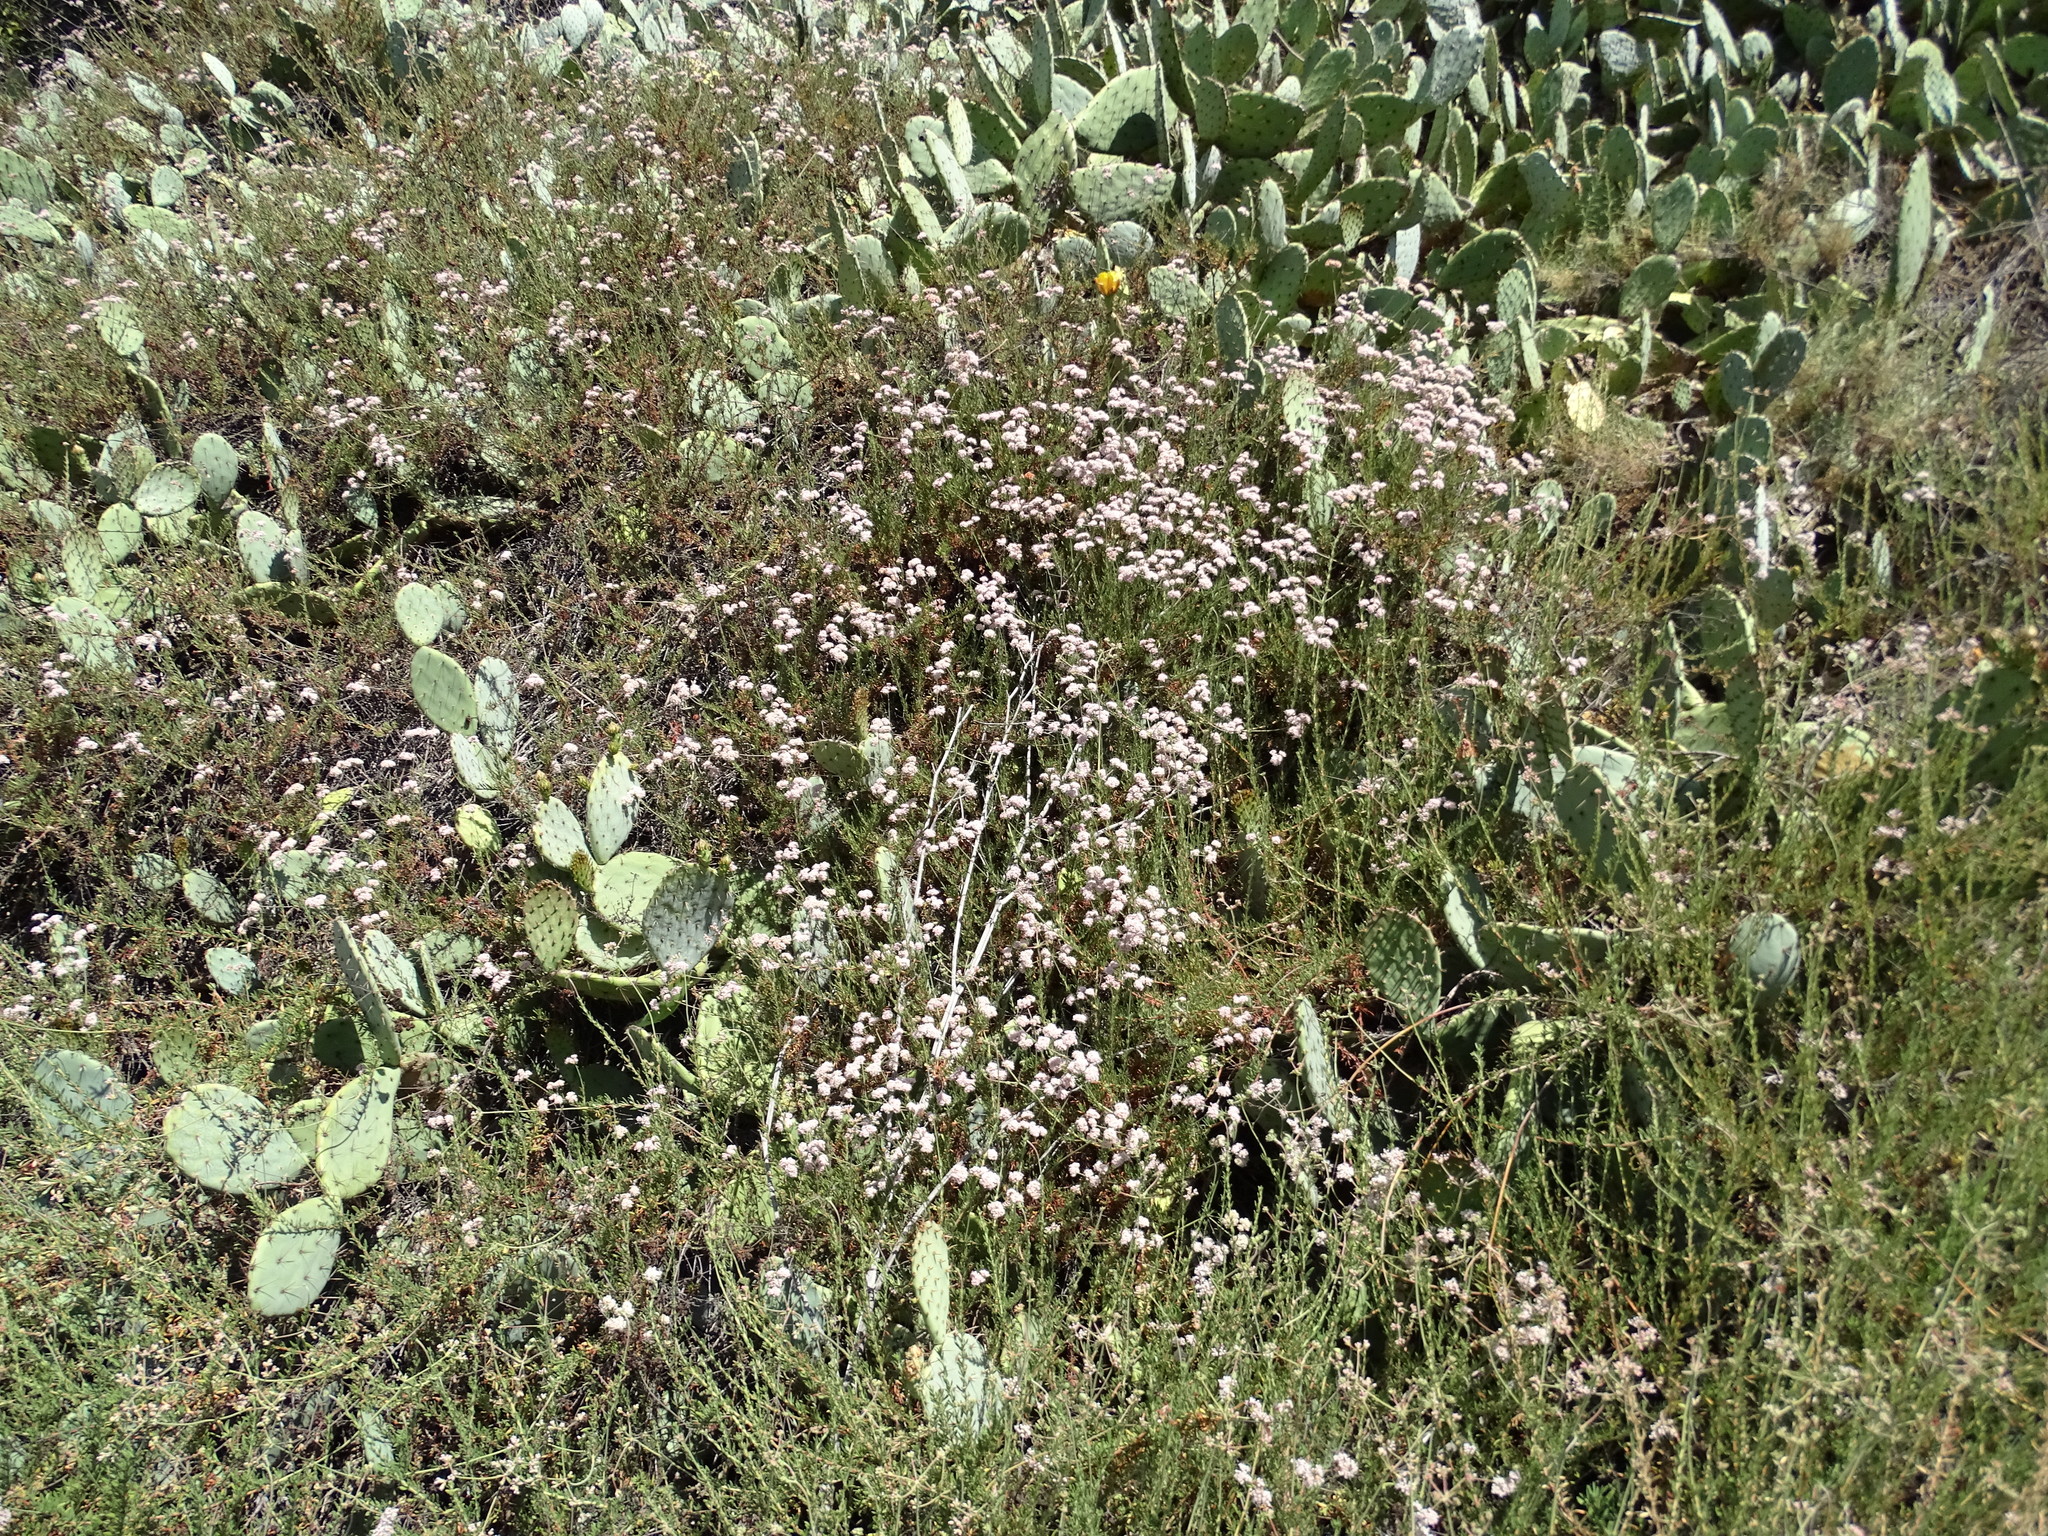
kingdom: Plantae
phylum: Tracheophyta
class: Magnoliopsida
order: Caryophyllales
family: Polygonaceae
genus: Eriogonum
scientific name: Eriogonum fasciculatum
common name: California wild buckwheat
